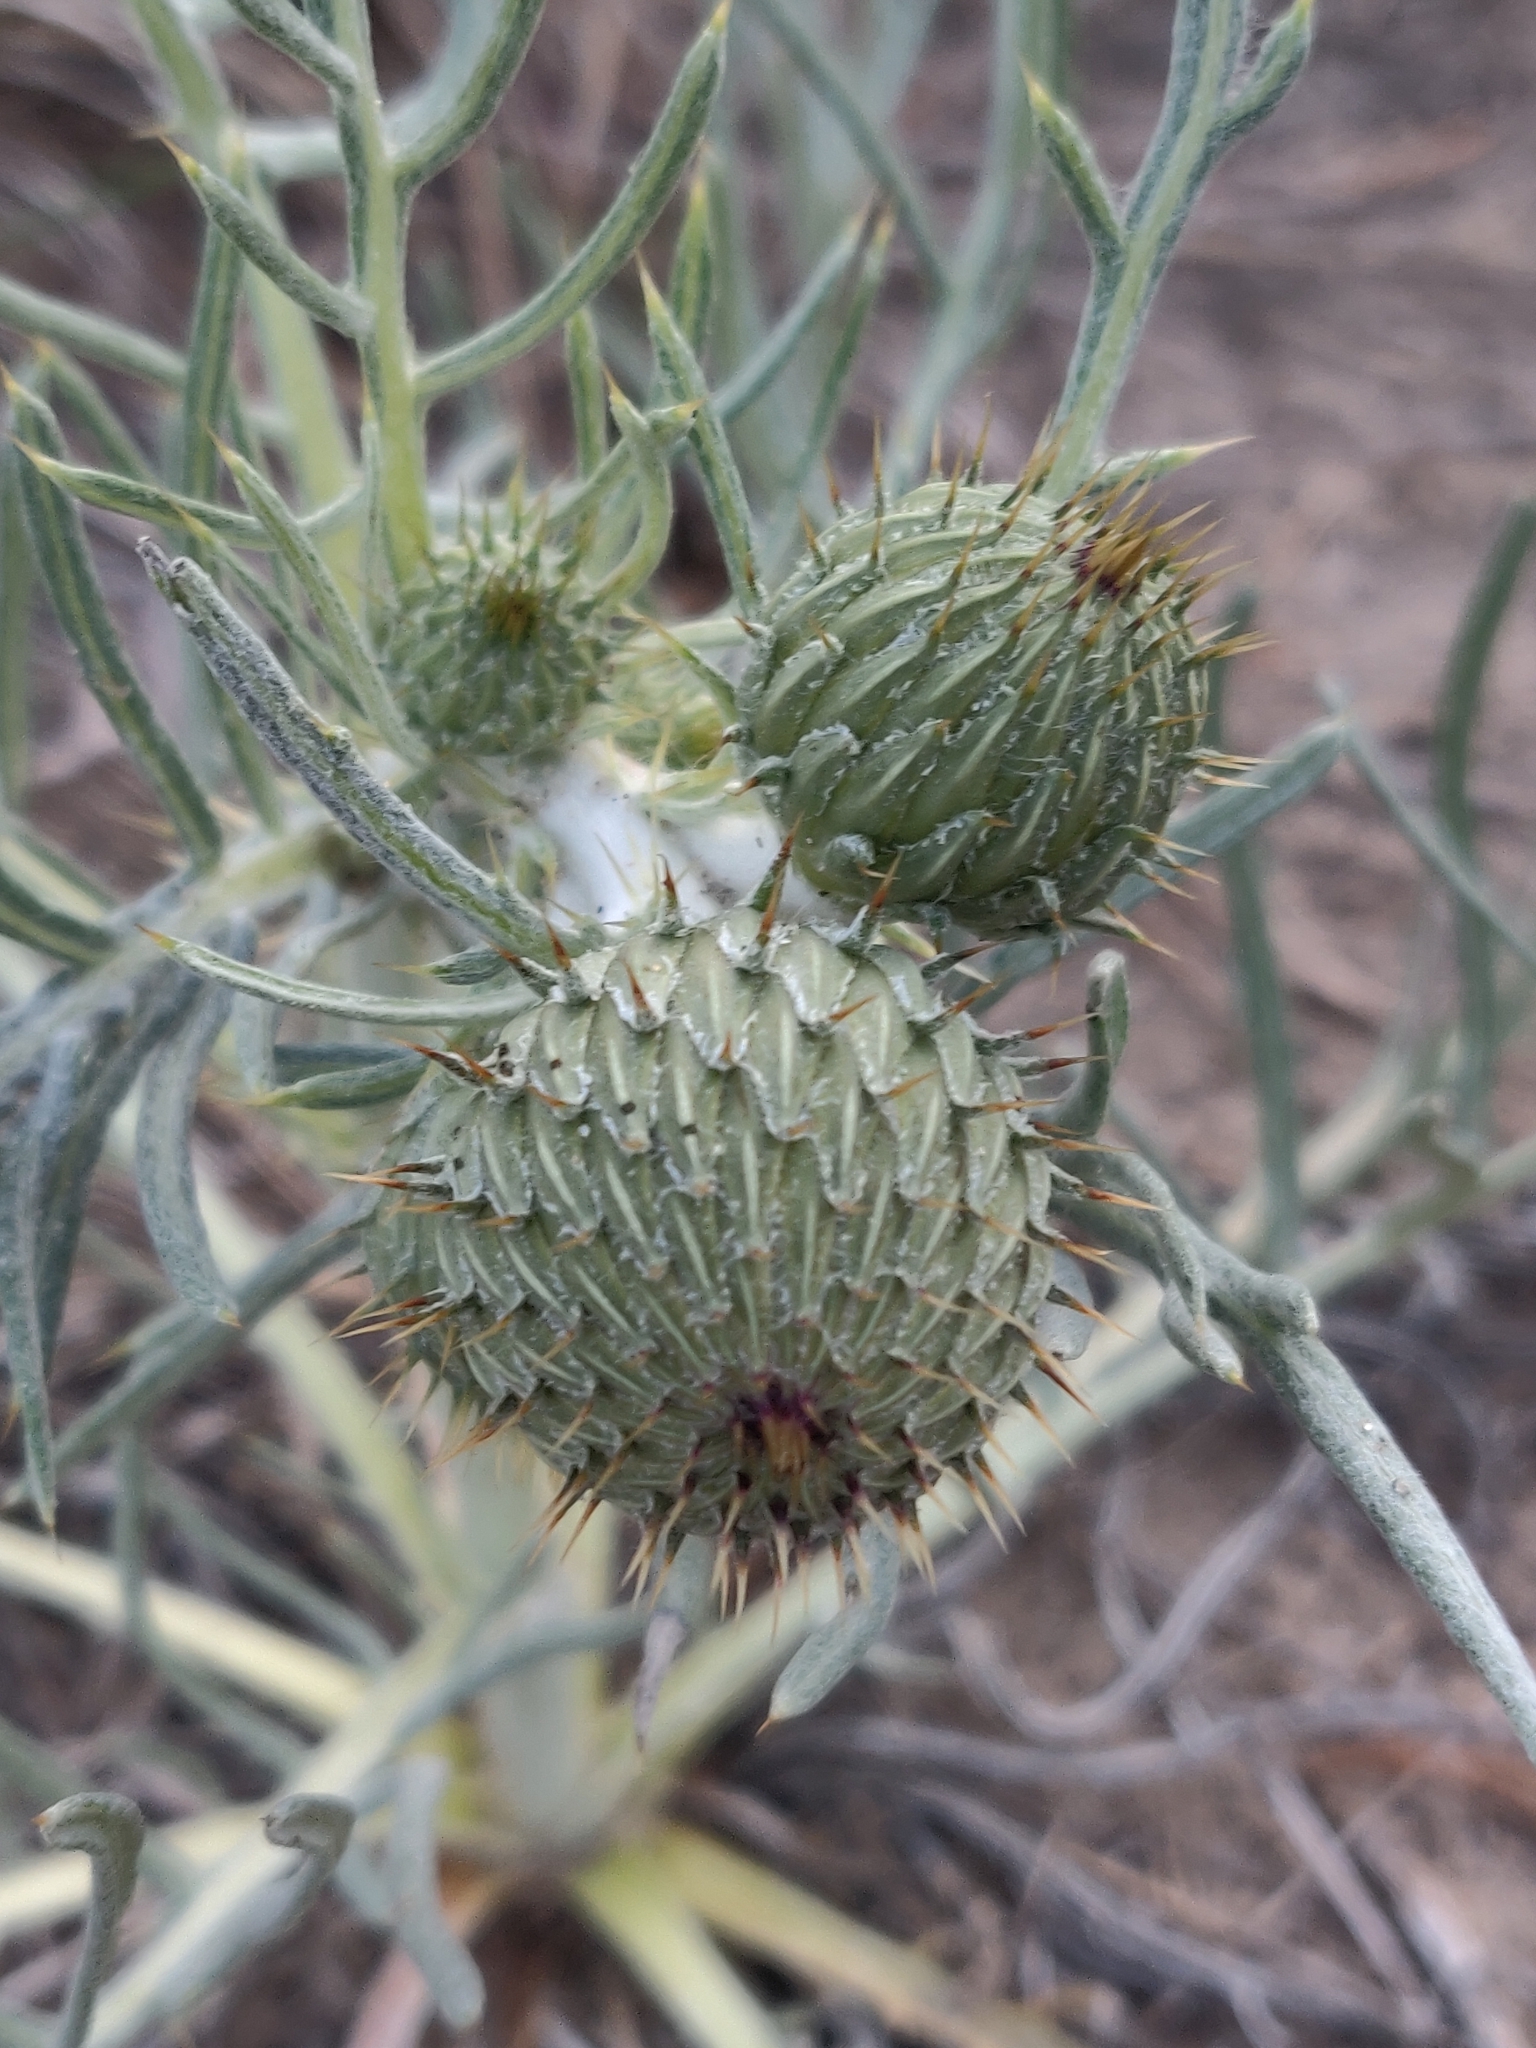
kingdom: Plantae
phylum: Tracheophyta
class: Magnoliopsida
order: Asterales
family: Asteraceae
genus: Cirsium
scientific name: Cirsium pitcheri
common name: Dune thistle
